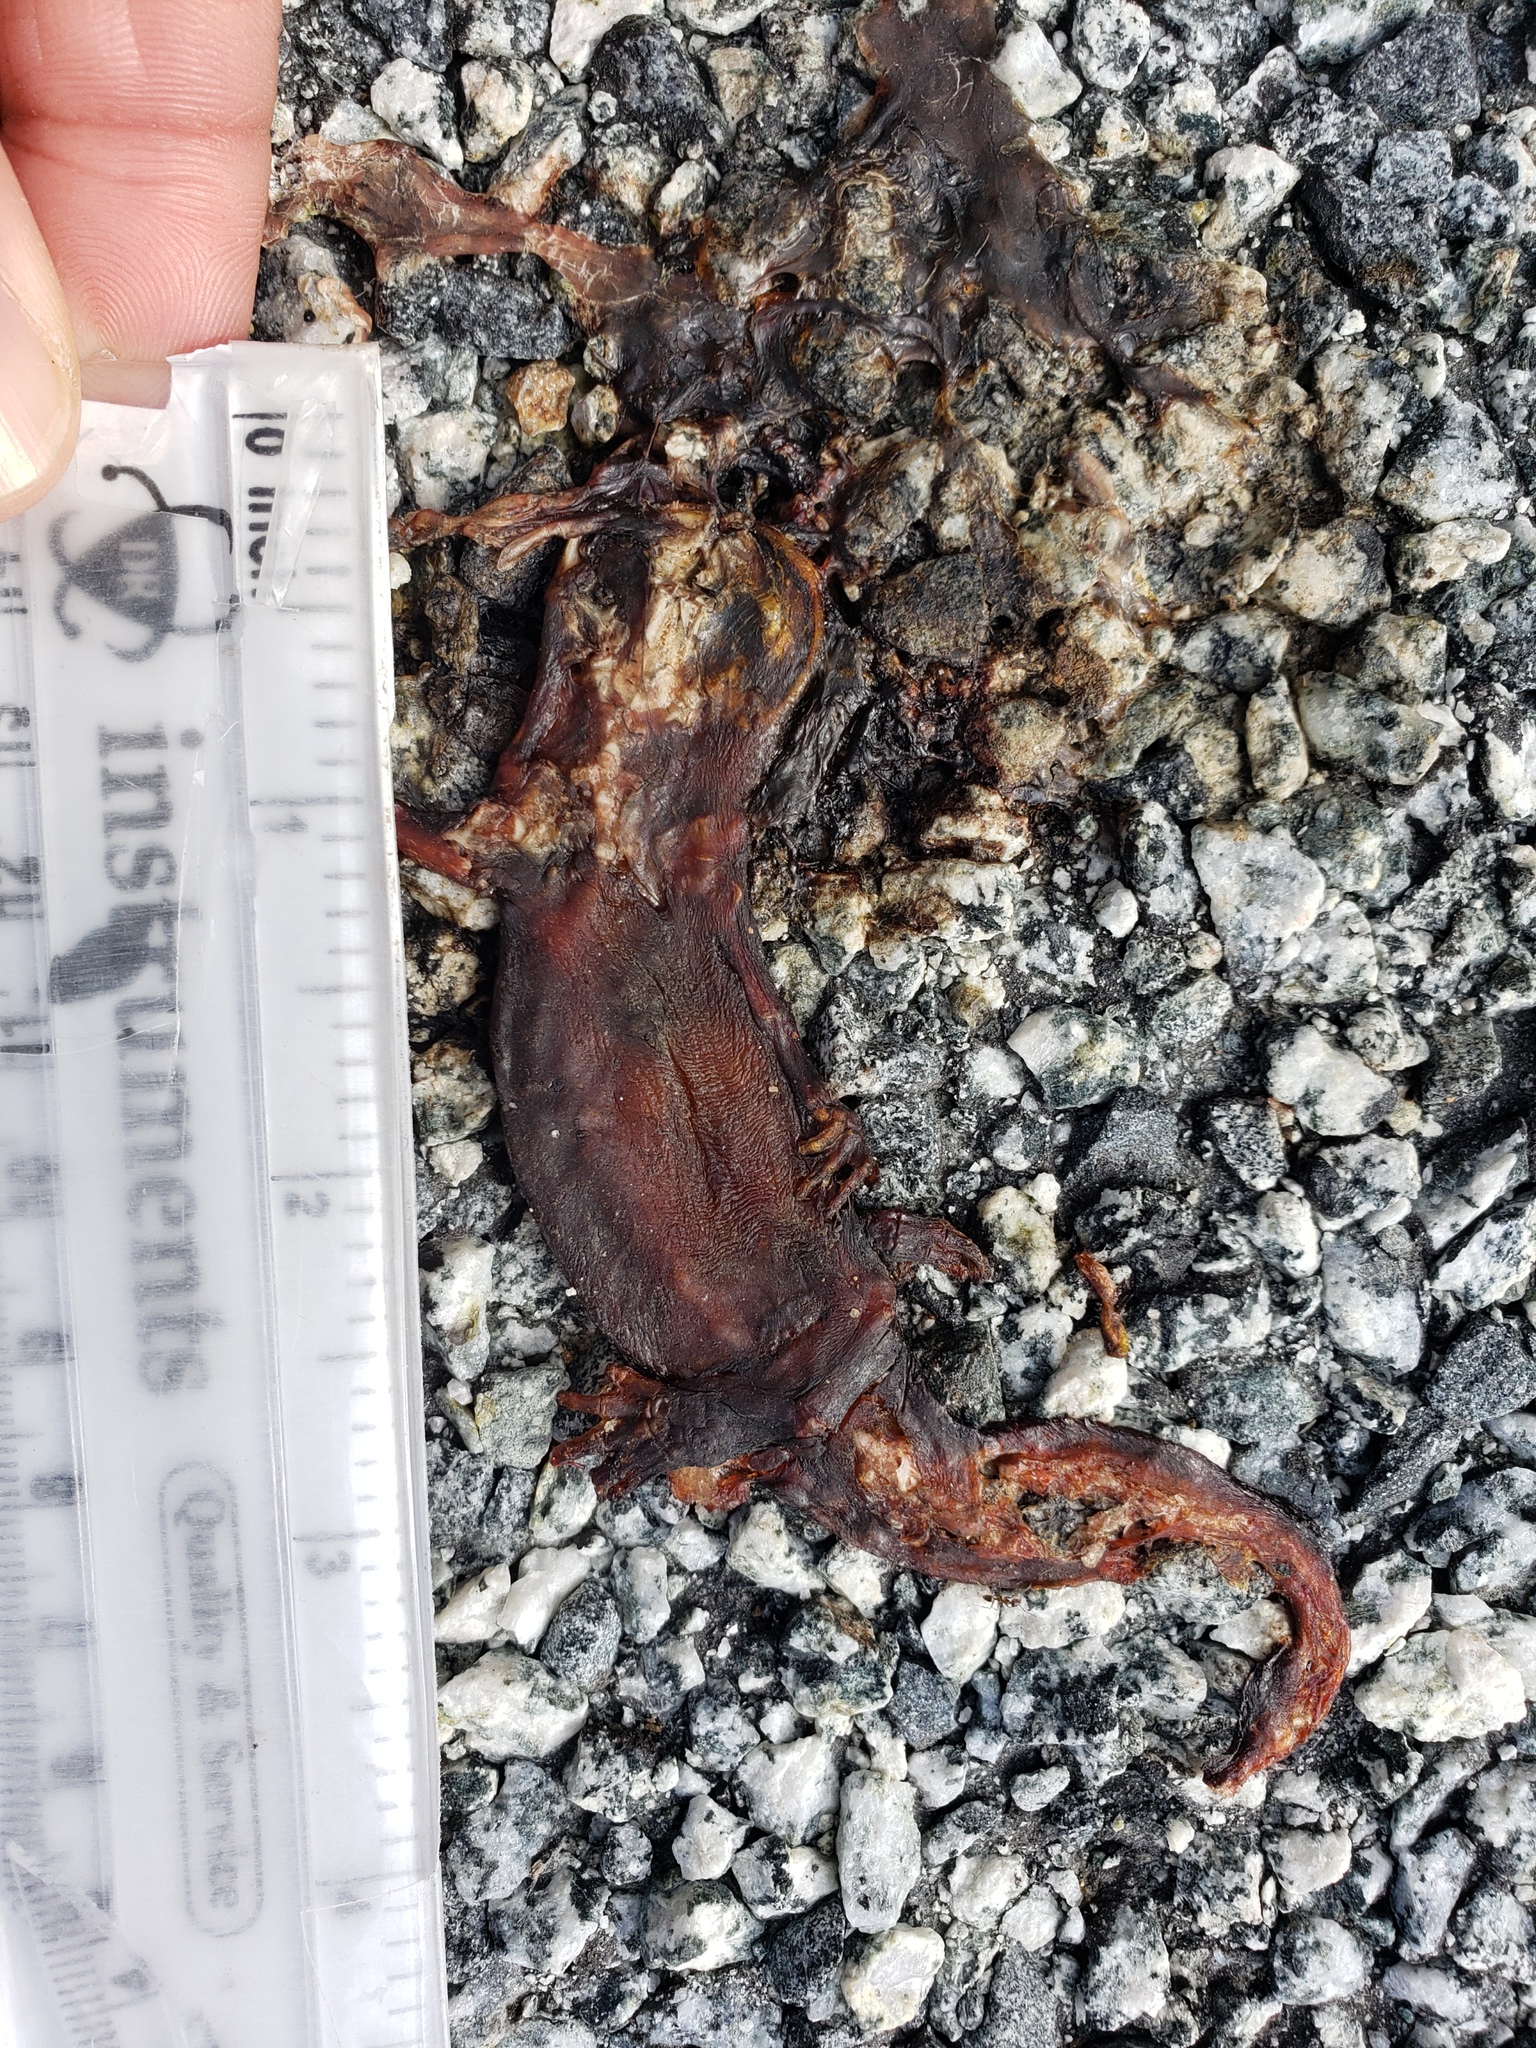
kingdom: Animalia
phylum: Chordata
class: Amphibia
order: Caudata
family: Salamandridae
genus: Taricha
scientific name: Taricha
